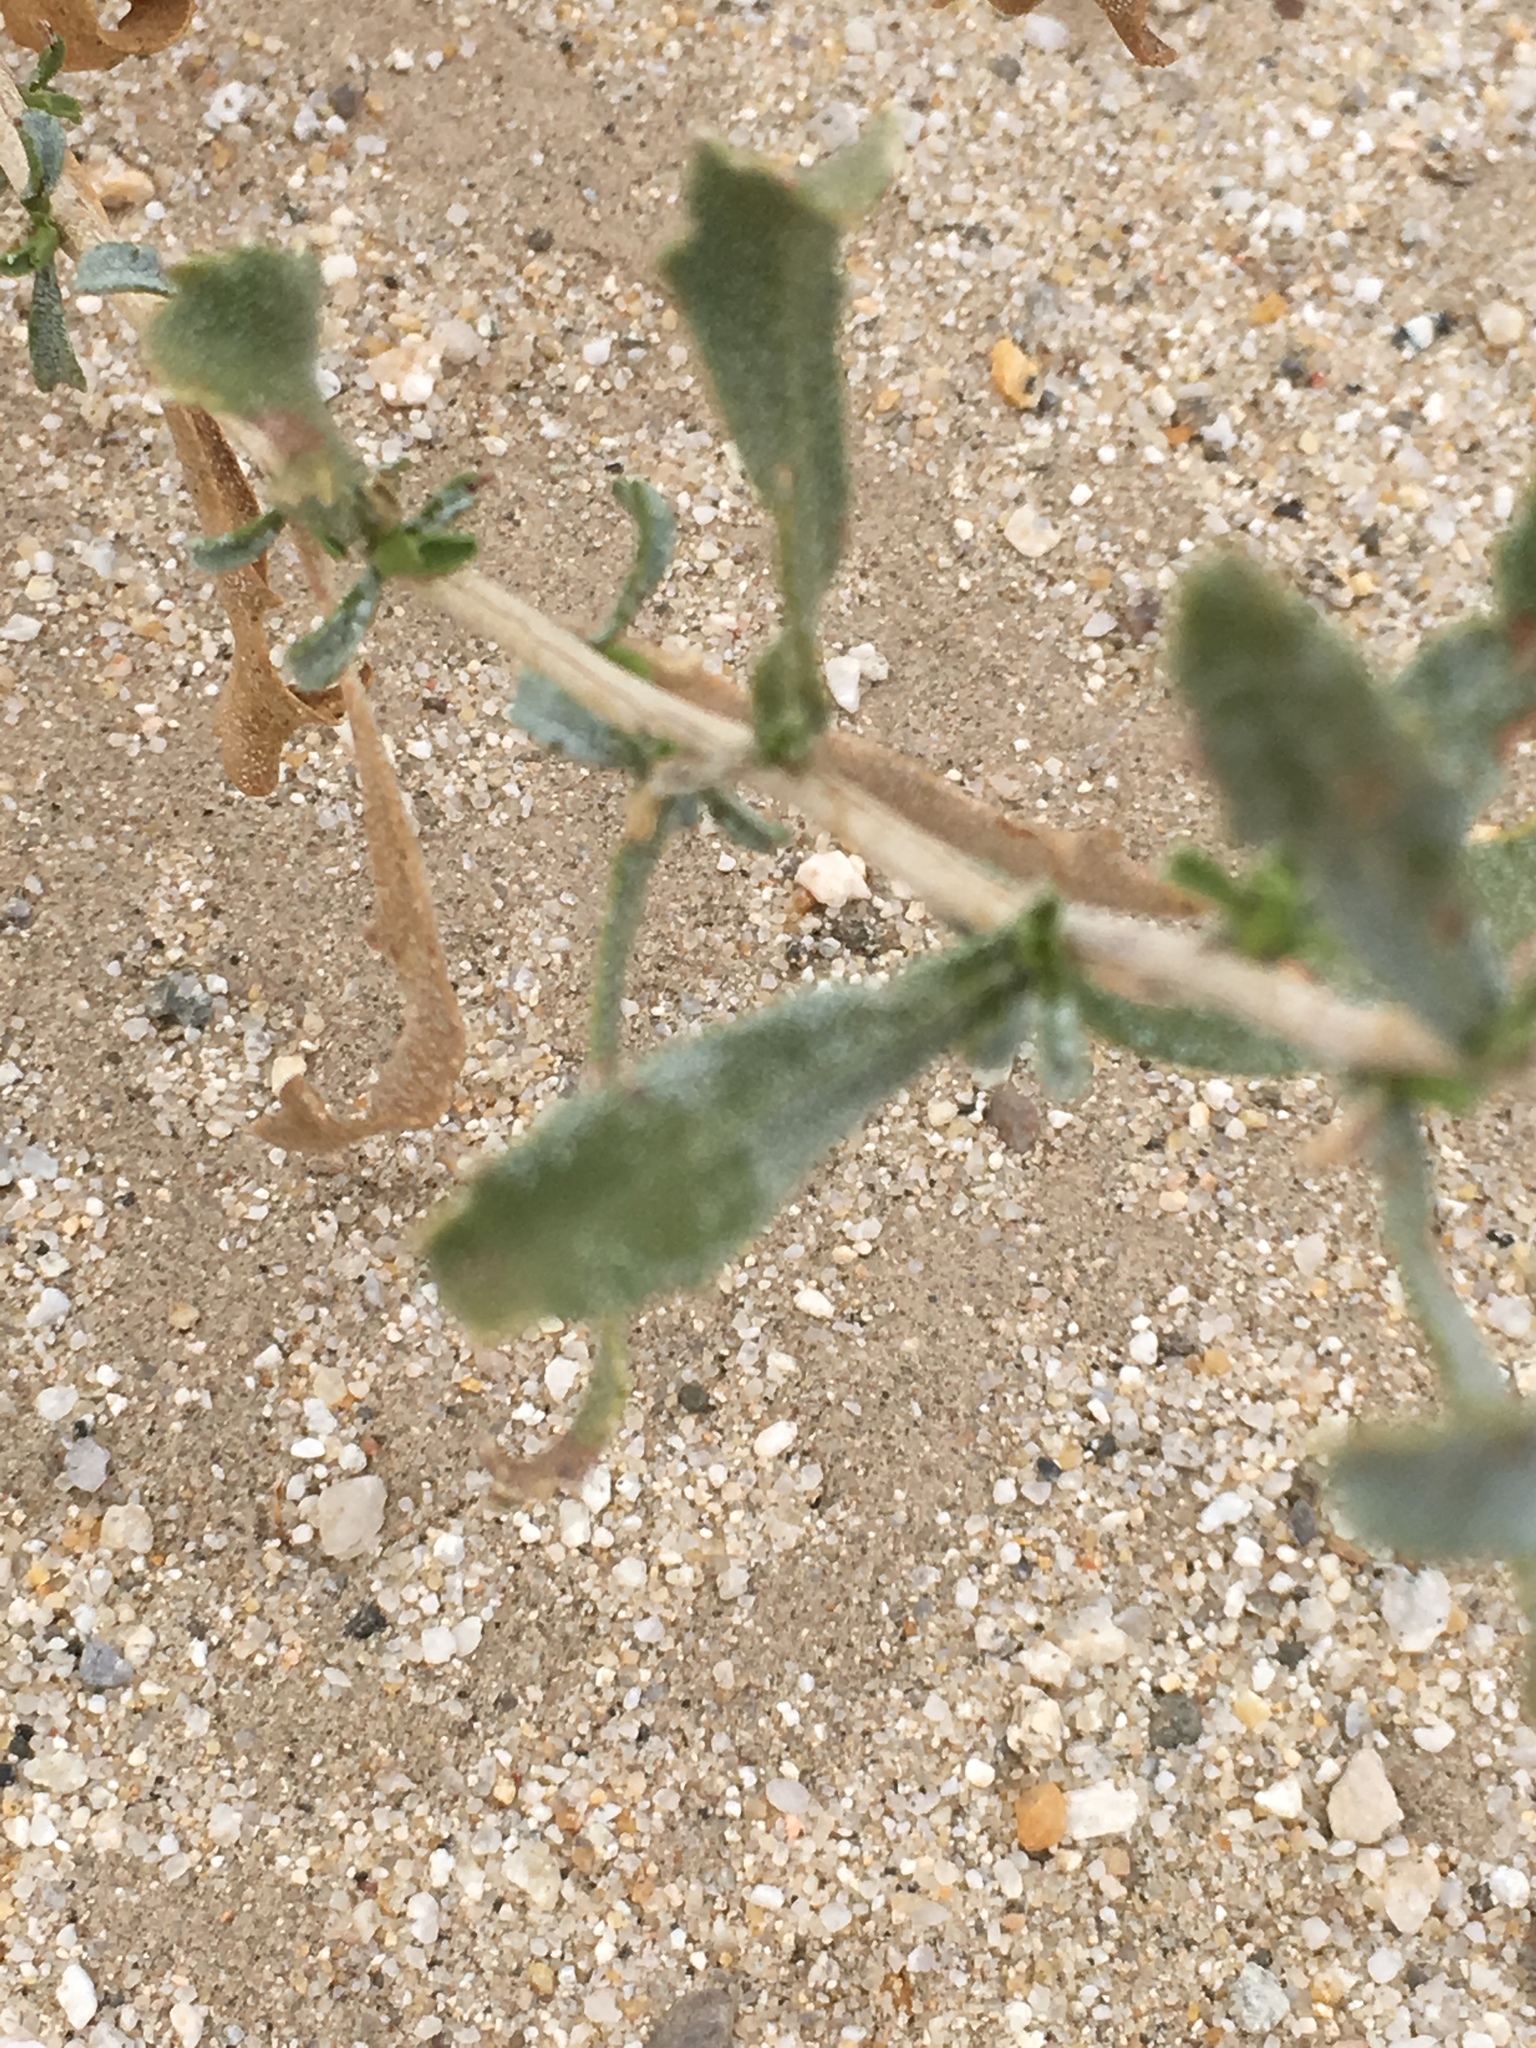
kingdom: Plantae
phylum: Tracheophyta
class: Magnoliopsida
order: Asterales
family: Asteraceae
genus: Isocoma
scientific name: Isocoma acradenia
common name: Alkali jimmyweed
